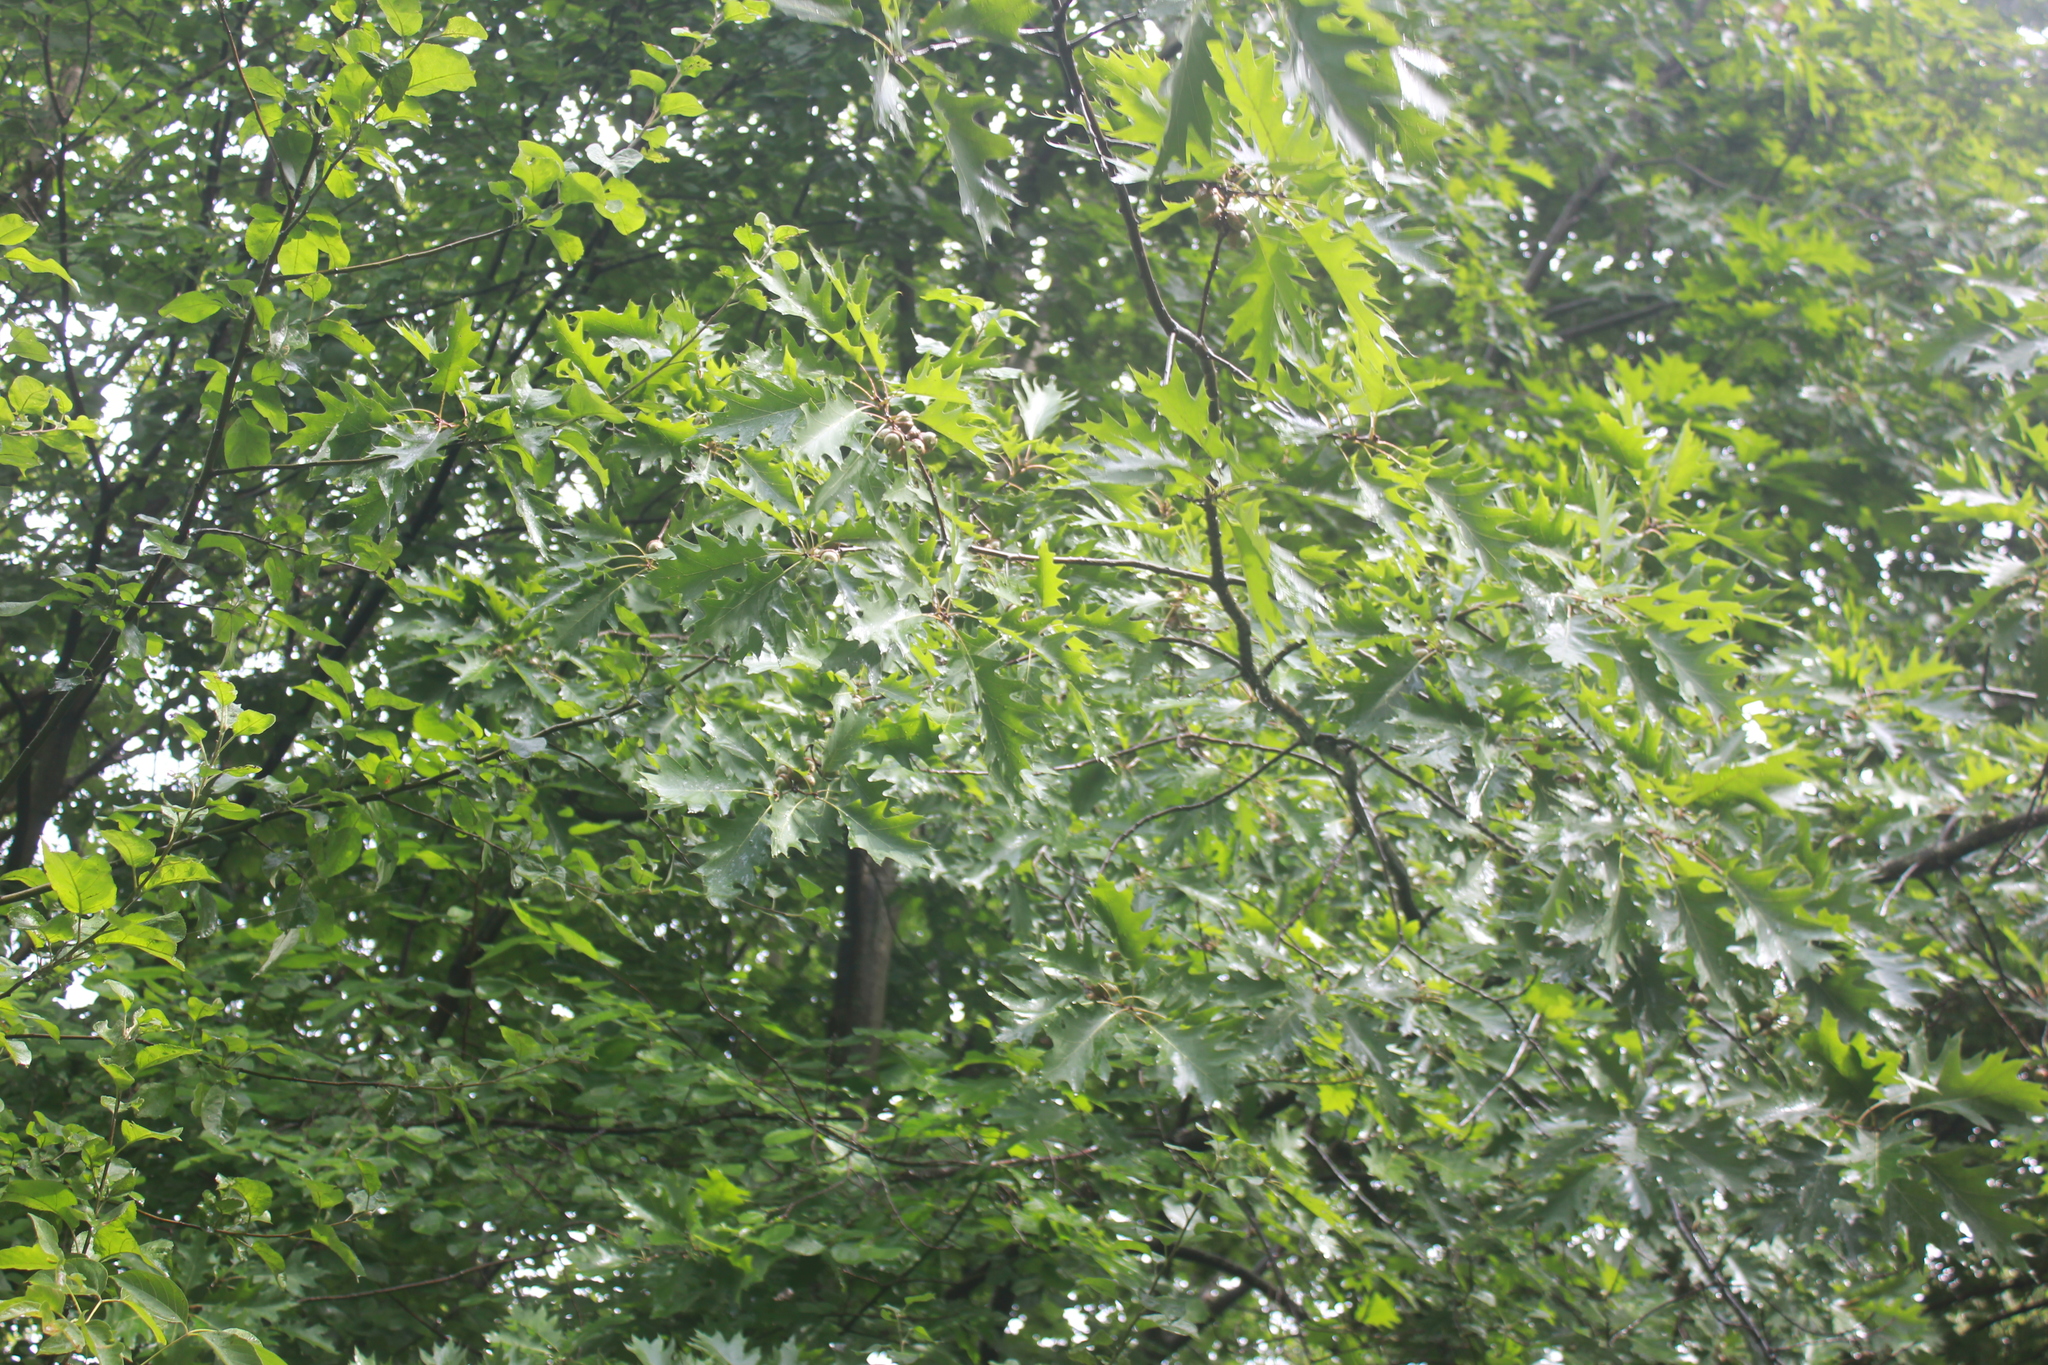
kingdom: Plantae
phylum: Tracheophyta
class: Magnoliopsida
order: Fagales
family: Fagaceae
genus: Quercus
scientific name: Quercus rubra
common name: Red oak
